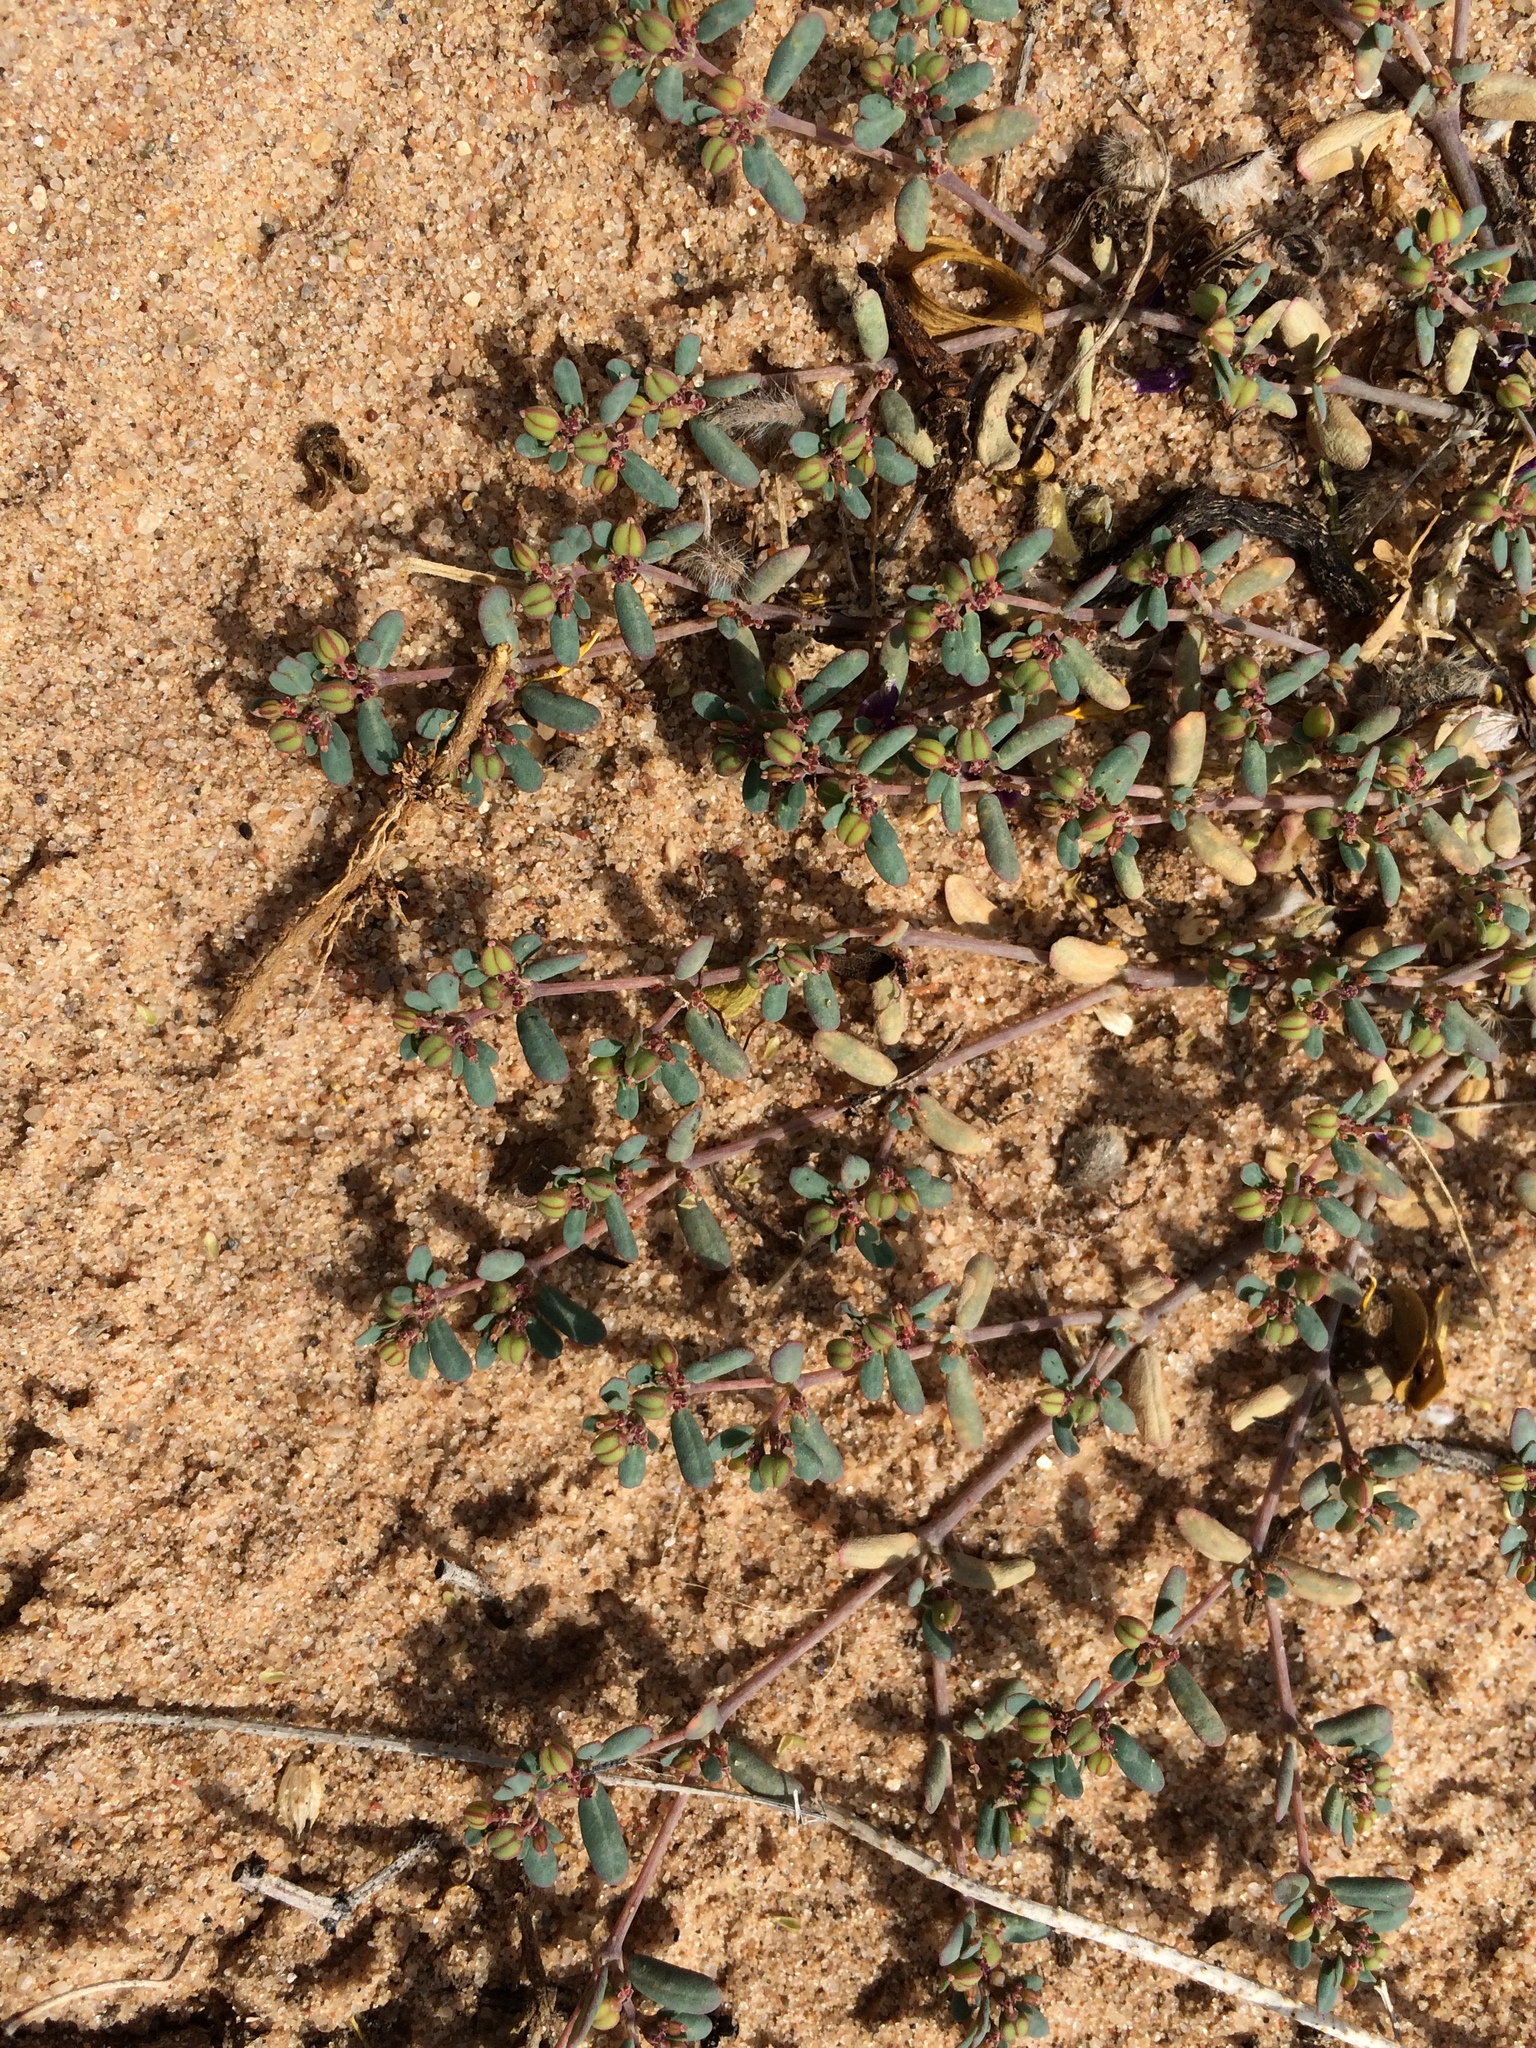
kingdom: Plantae
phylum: Tracheophyta
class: Magnoliopsida
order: Malpighiales
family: Euphorbiaceae
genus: Euphorbia
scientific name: Euphorbia golondrina
